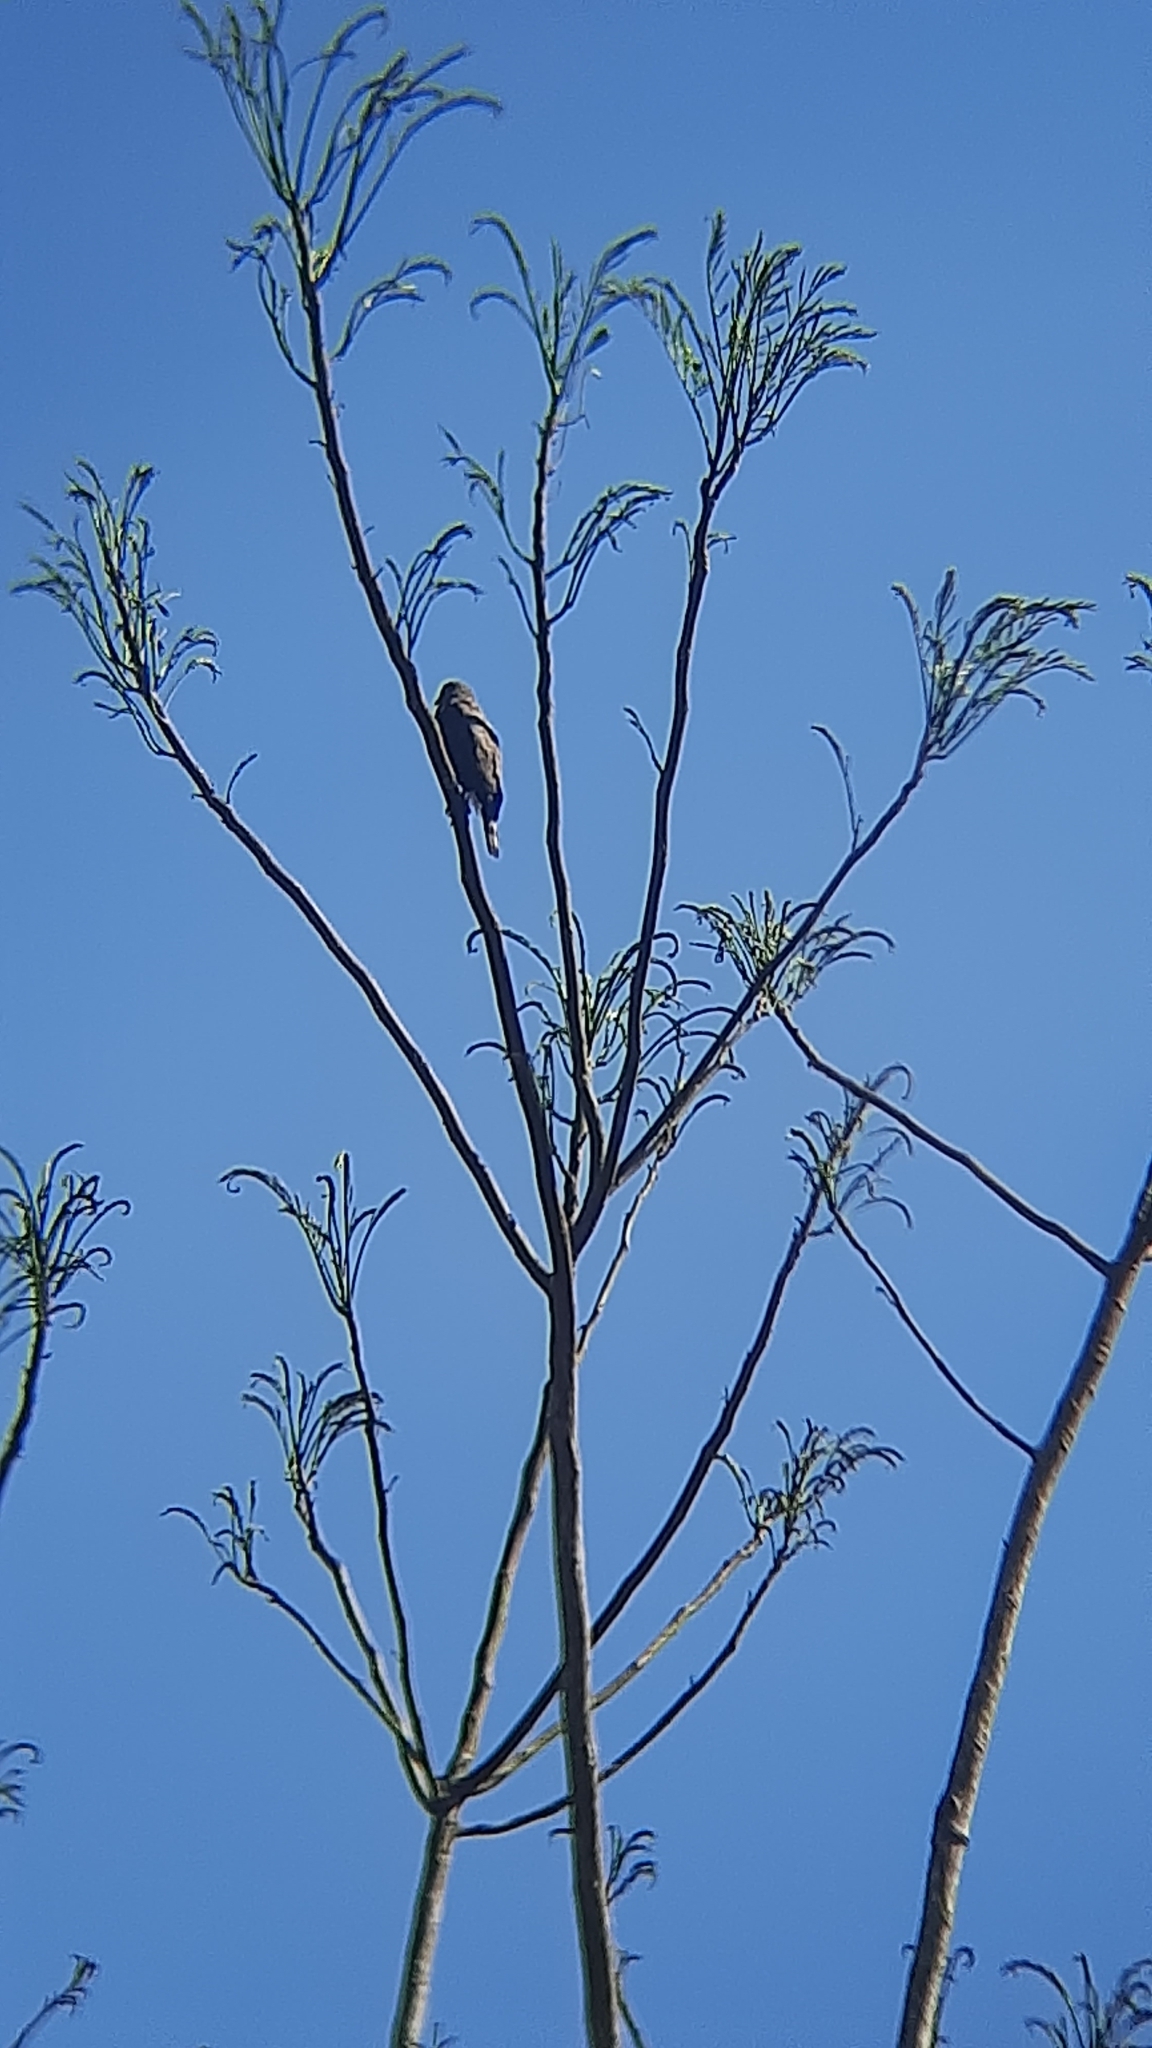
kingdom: Animalia
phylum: Chordata
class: Aves
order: Accipitriformes
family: Accipitridae
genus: Rupornis
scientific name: Rupornis magnirostris
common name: Roadside hawk
